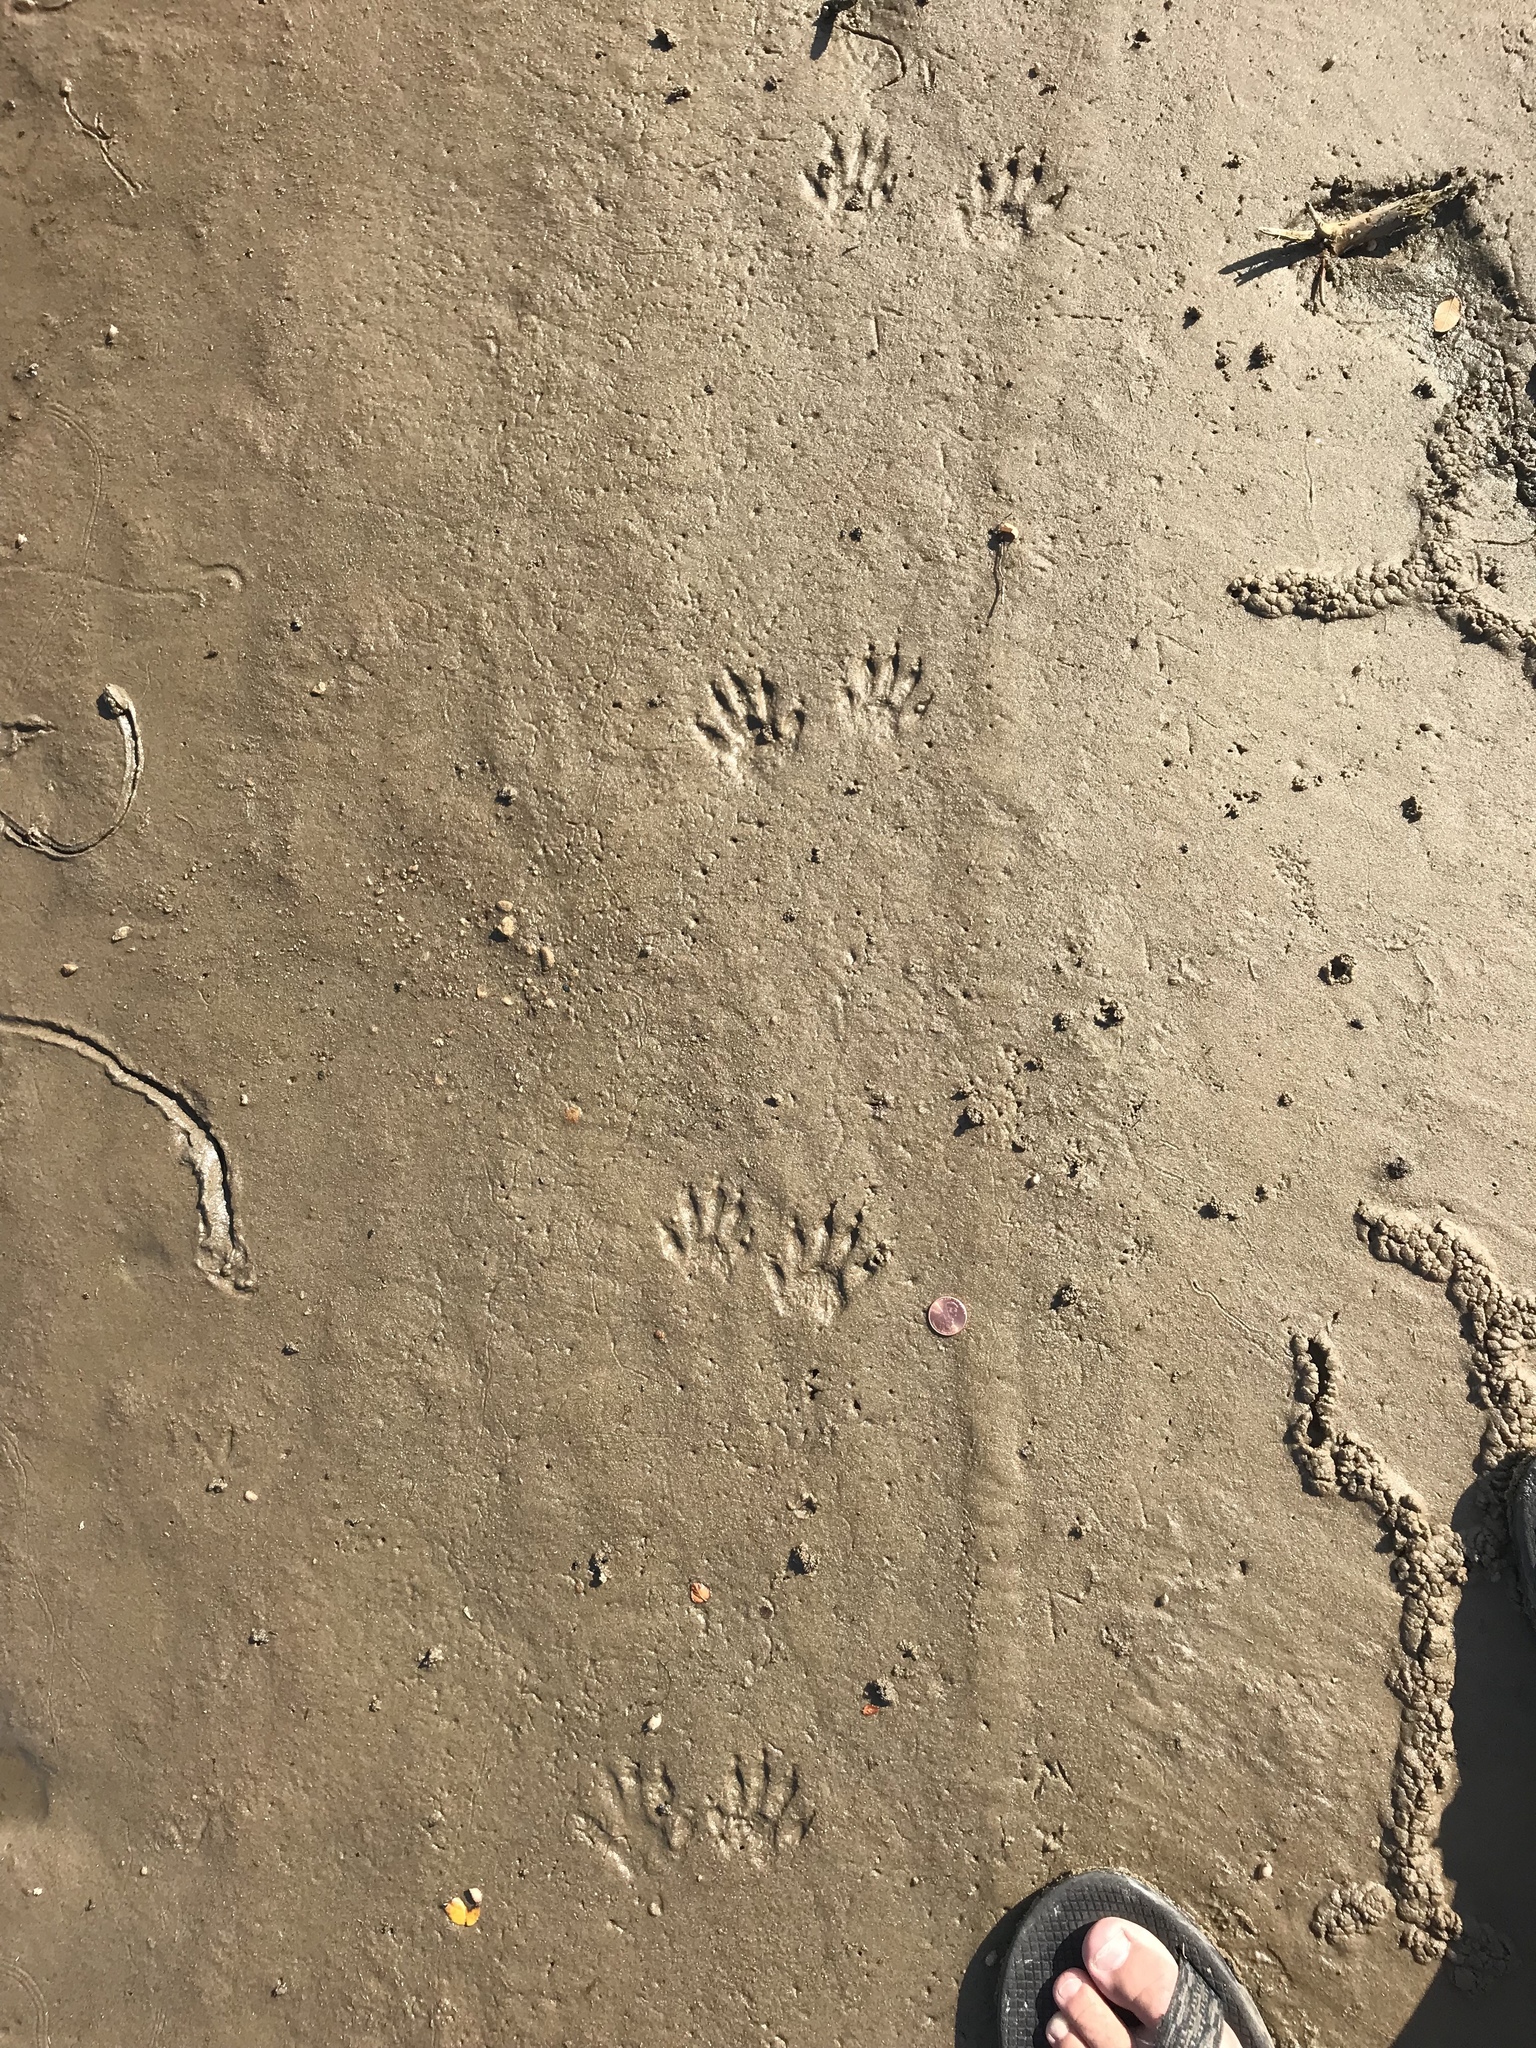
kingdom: Animalia
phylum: Chordata
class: Mammalia
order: Carnivora
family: Procyonidae
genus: Procyon
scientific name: Procyon lotor
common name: Raccoon
